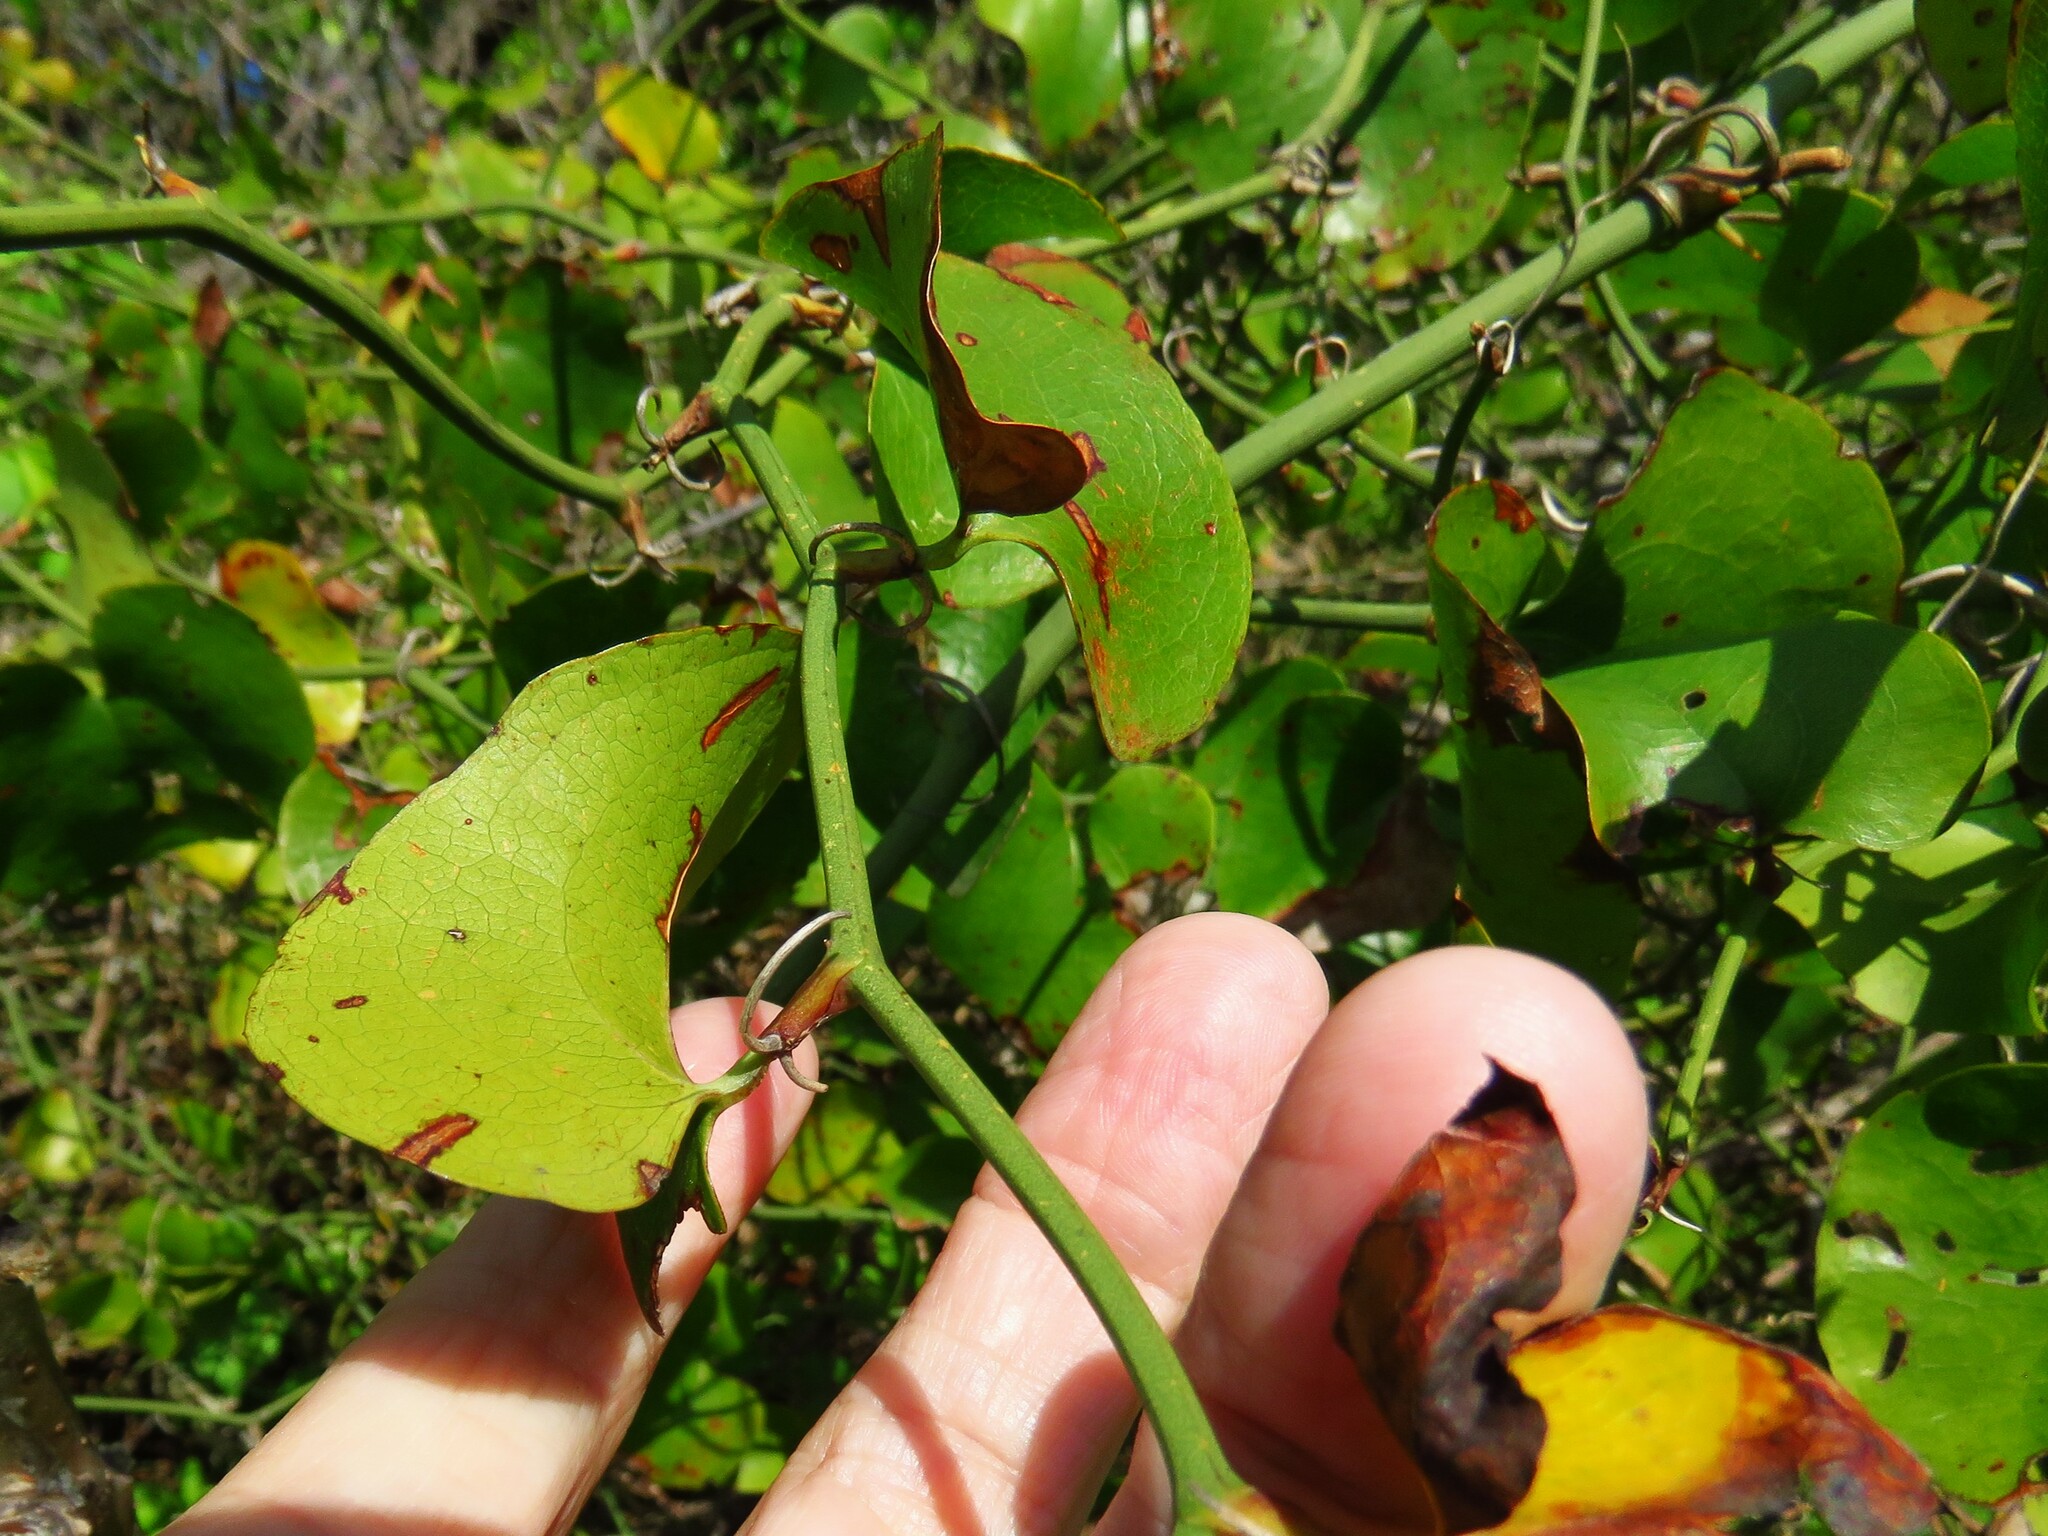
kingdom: Plantae
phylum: Tracheophyta
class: Liliopsida
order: Liliales
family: Smilacaceae
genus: Smilax
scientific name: Smilax rotundifolia
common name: Bullbriar
